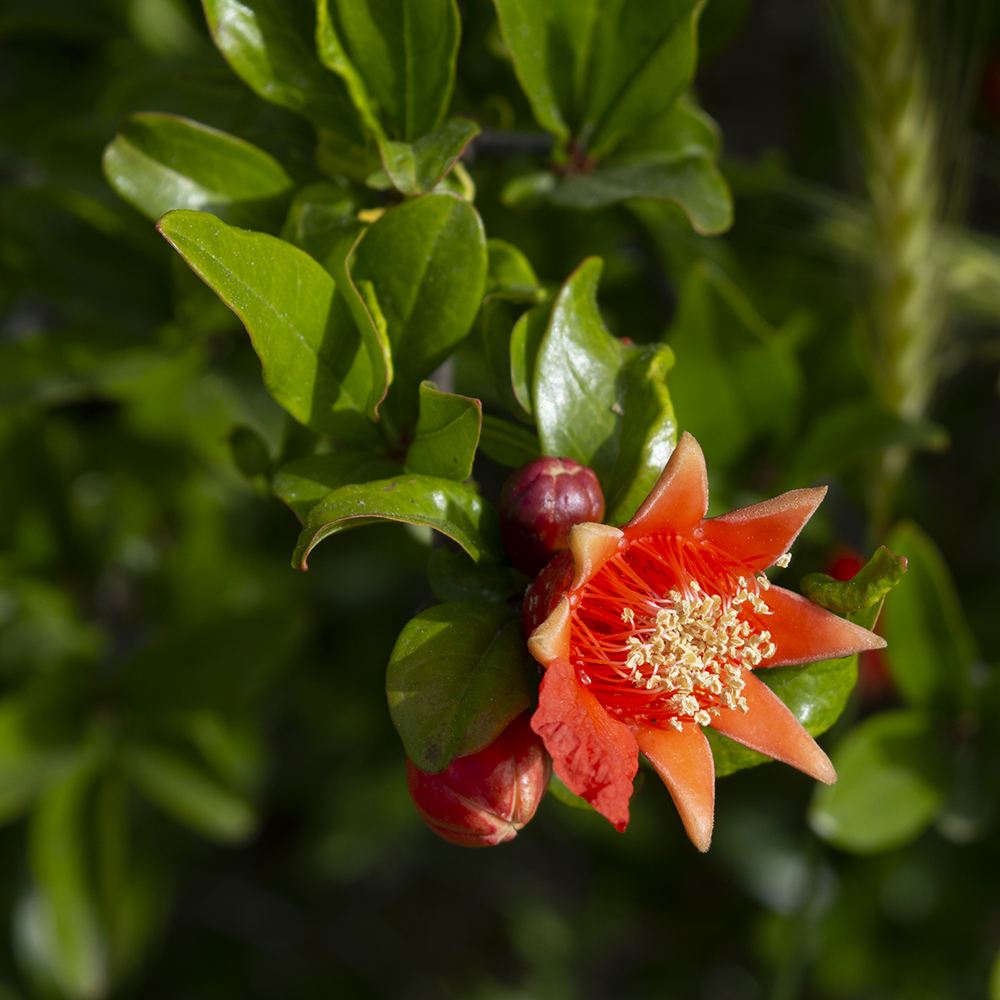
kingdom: Plantae
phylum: Tracheophyta
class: Magnoliopsida
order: Myrtales
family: Lythraceae
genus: Punica
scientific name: Punica granatum
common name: Pomegranate
